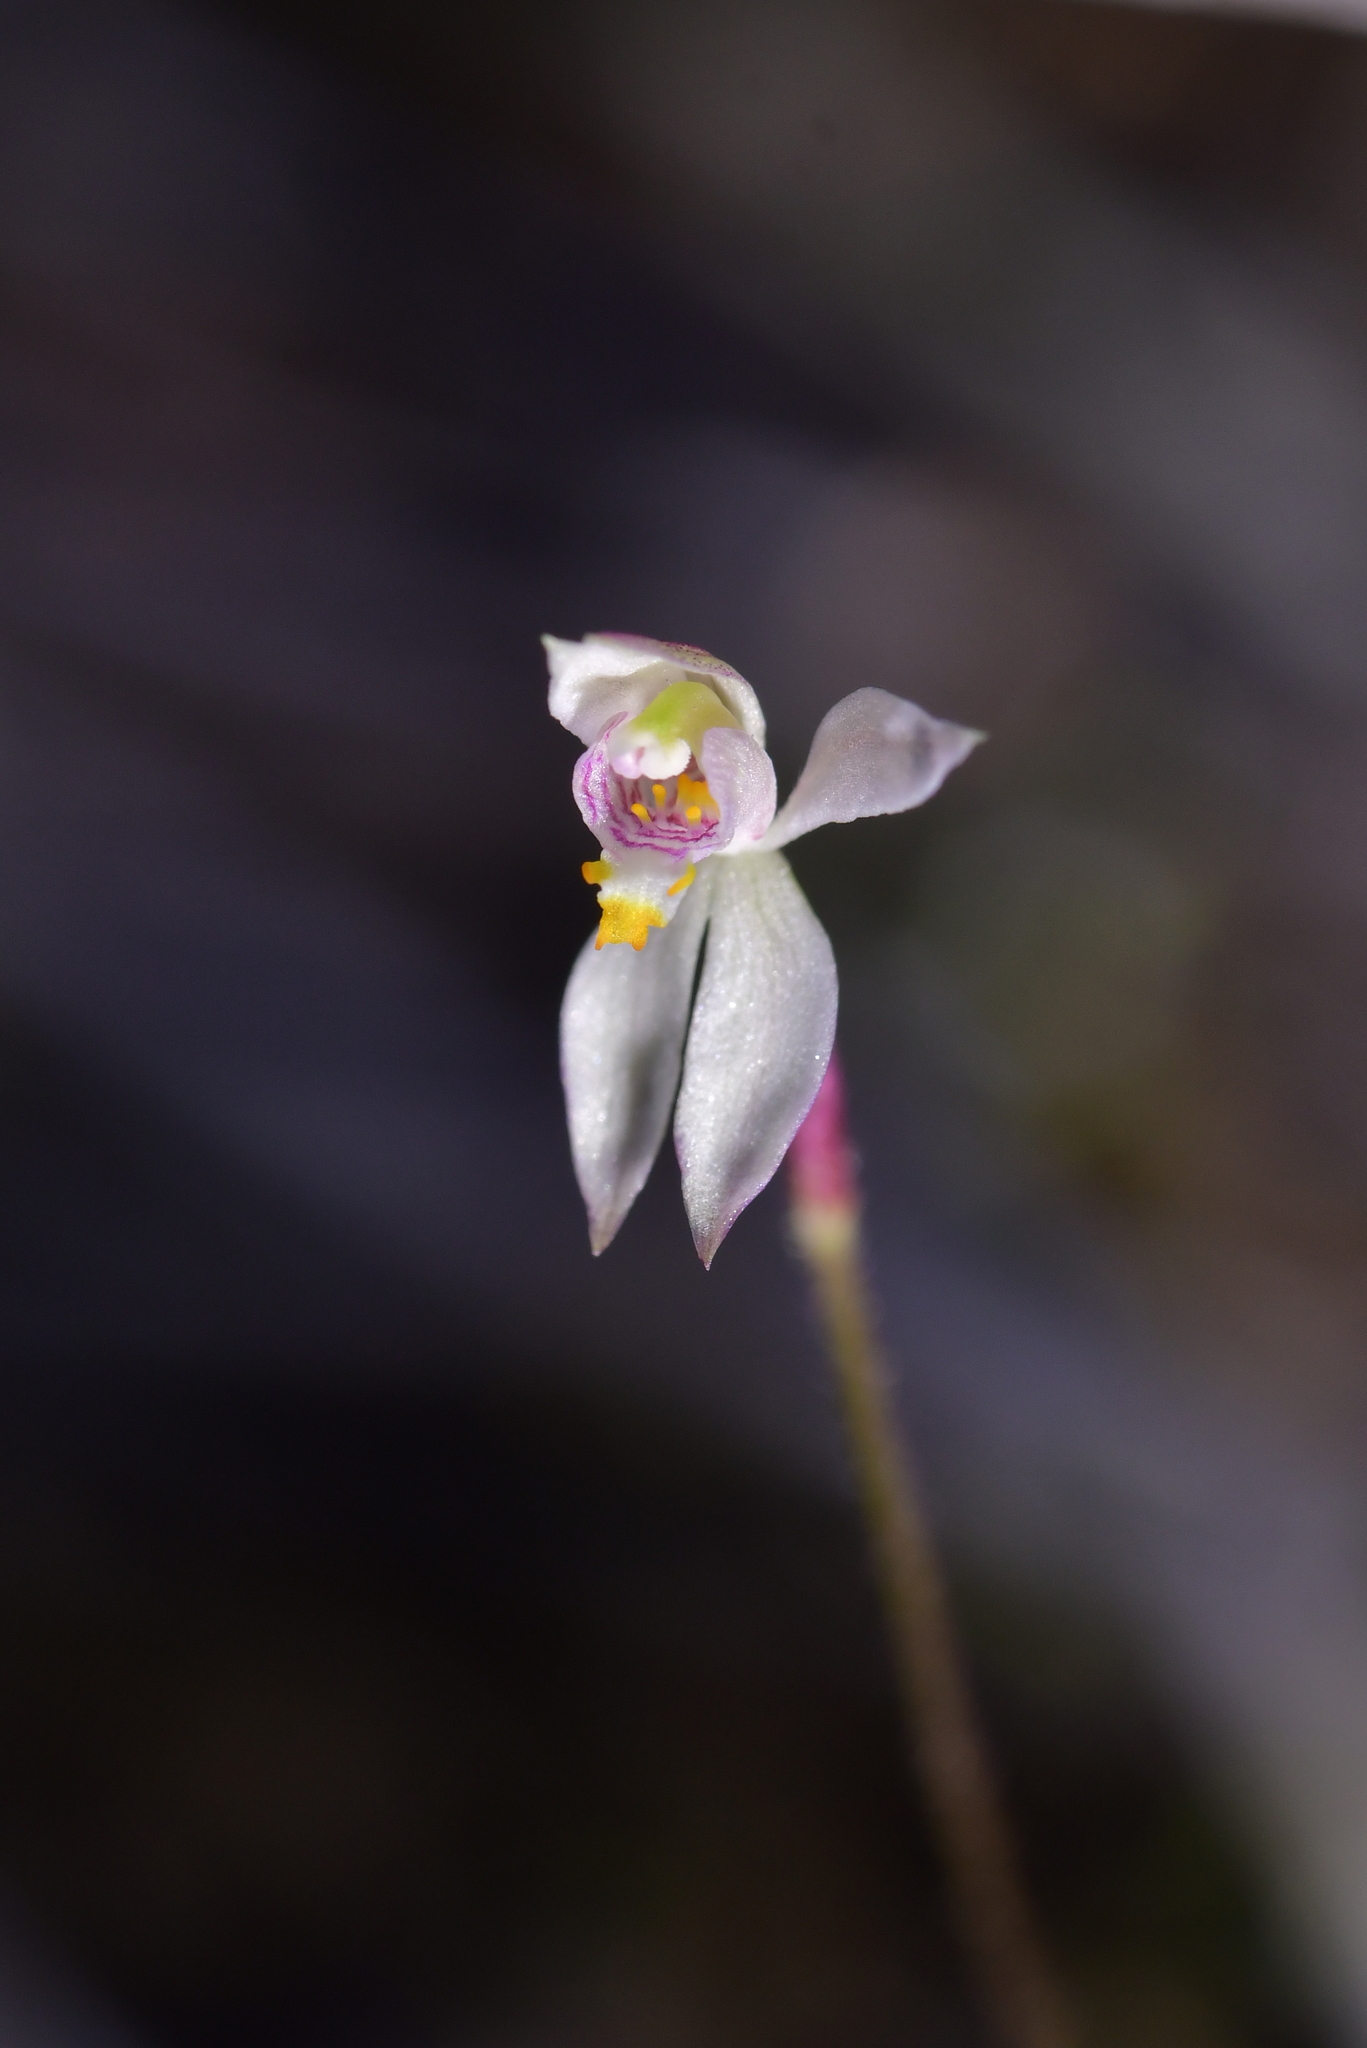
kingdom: Plantae
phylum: Tracheophyta
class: Liliopsida
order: Asparagales
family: Orchidaceae
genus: Caladenia
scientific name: Caladenia alata
